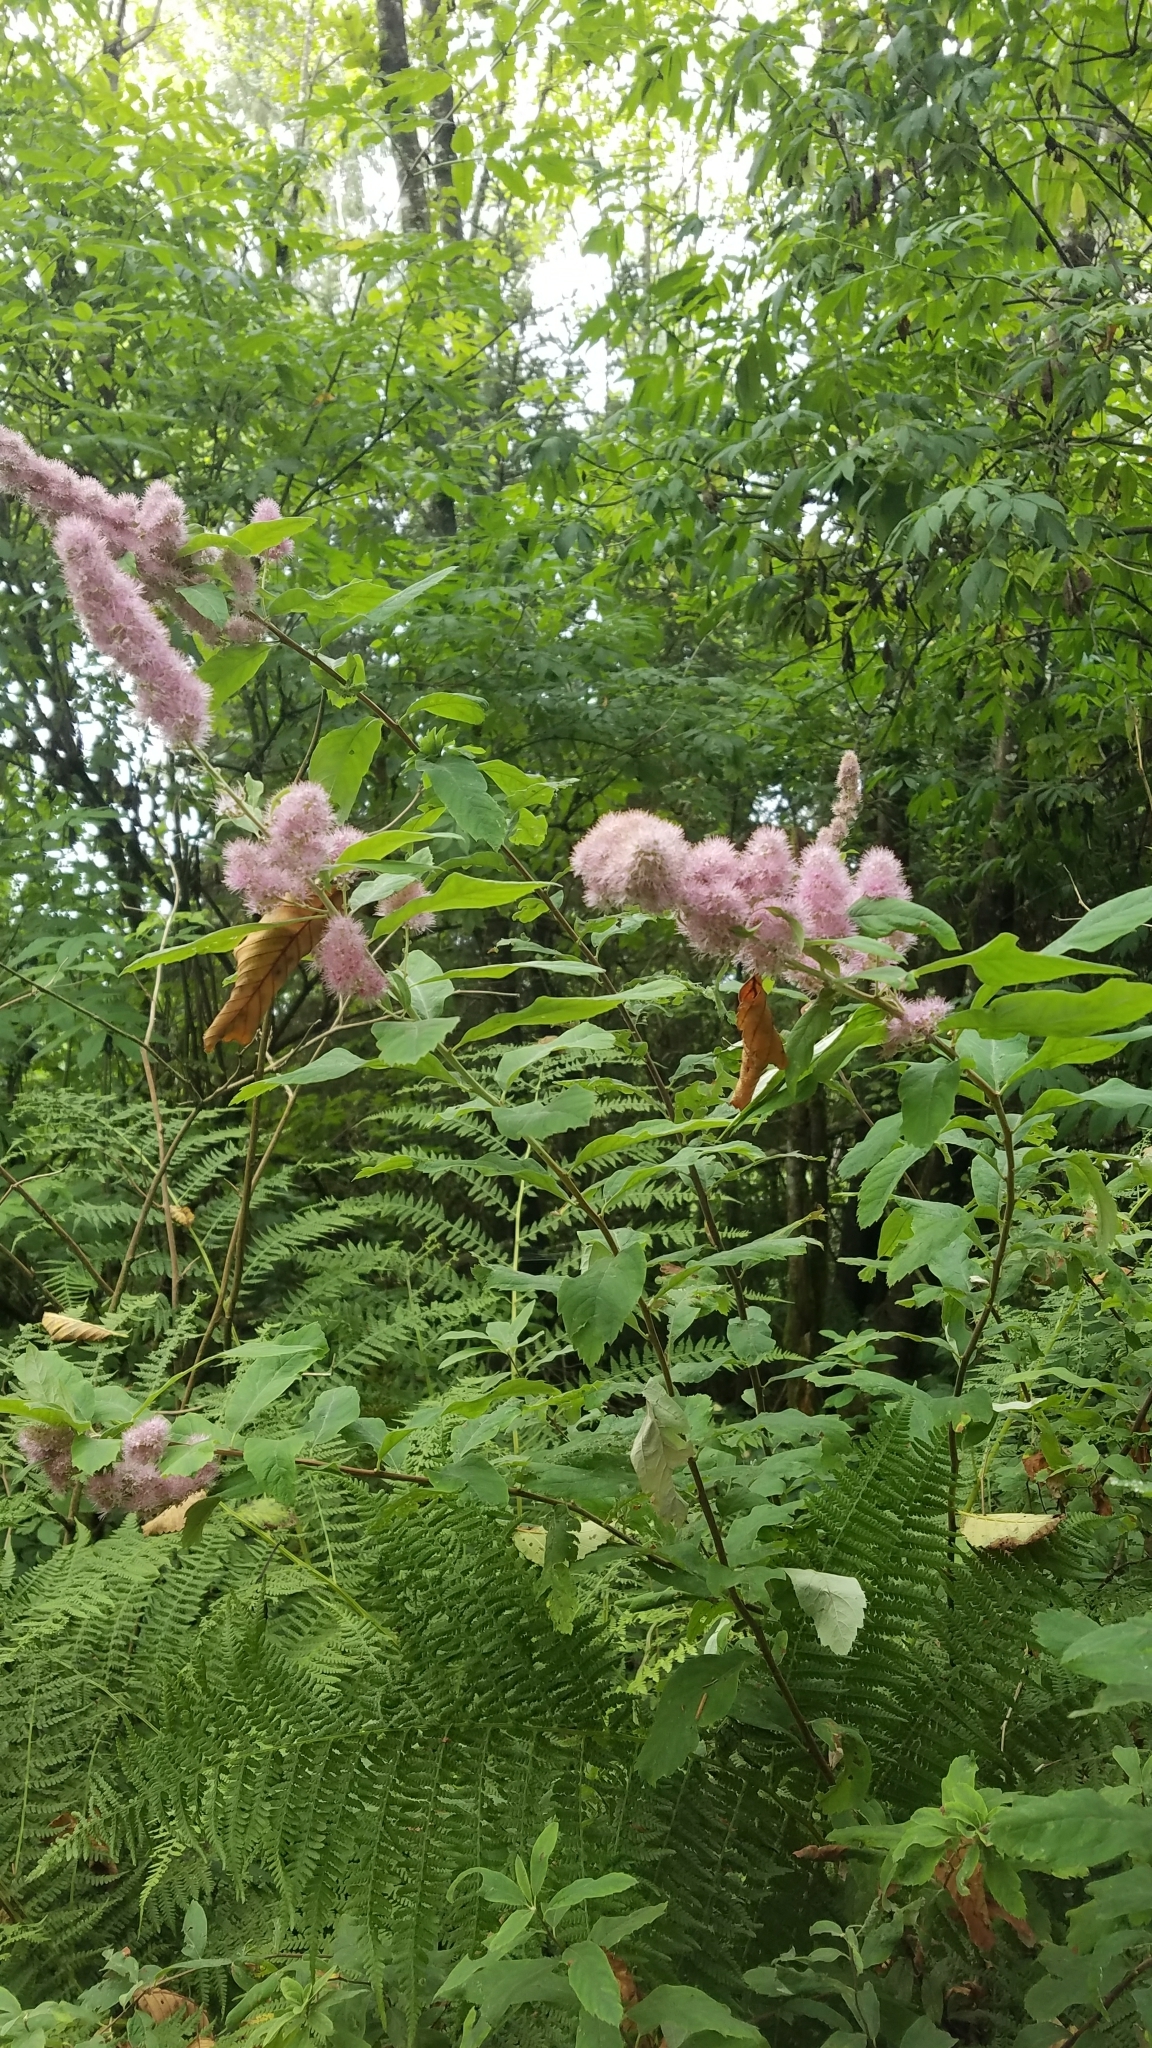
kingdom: Plantae
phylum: Tracheophyta
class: Magnoliopsida
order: Rosales
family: Rosaceae
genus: Spiraea
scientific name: Spiraea douglasii
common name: Steeplebush
